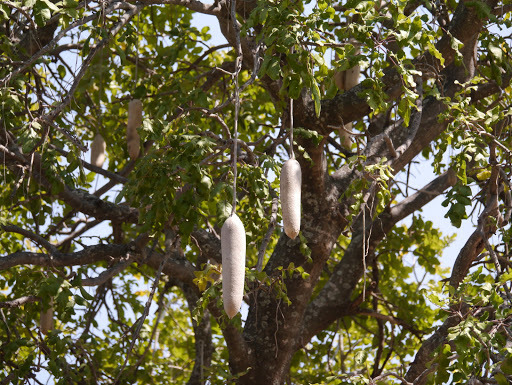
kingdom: Plantae
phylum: Tracheophyta
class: Magnoliopsida
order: Lamiales
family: Bignoniaceae
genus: Kigelia
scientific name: Kigelia africana
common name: Sausage tree
